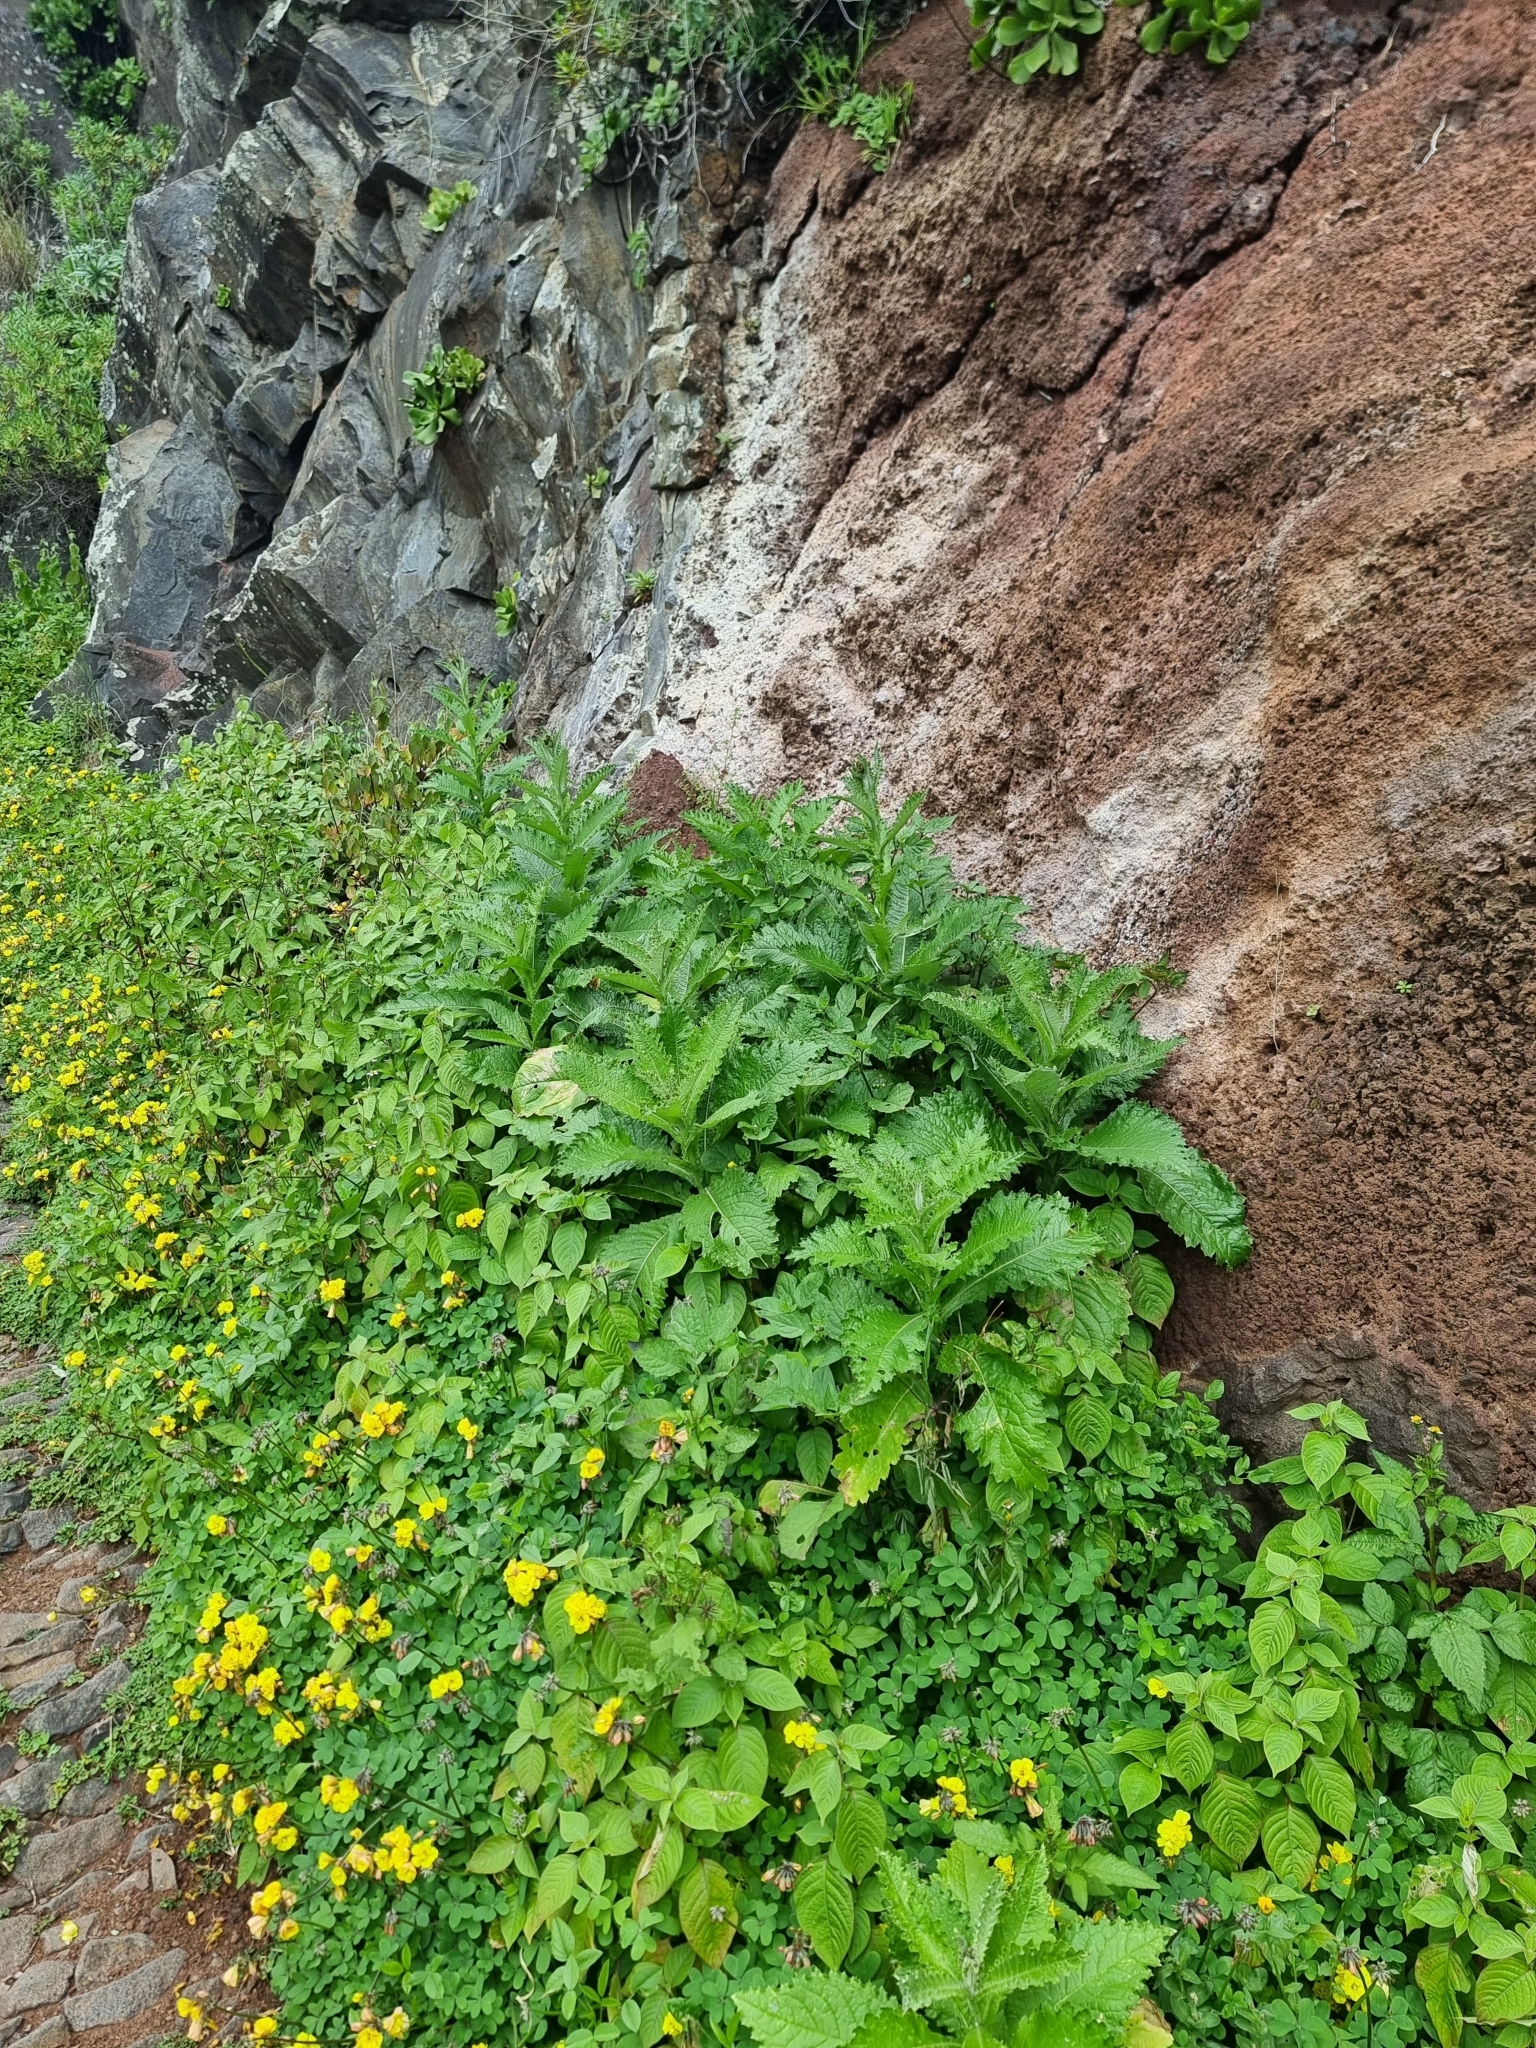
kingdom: Plantae
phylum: Tracheophyta
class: Magnoliopsida
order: Asterales
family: Asteraceae
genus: Carduus
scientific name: Carduus squarrosus
